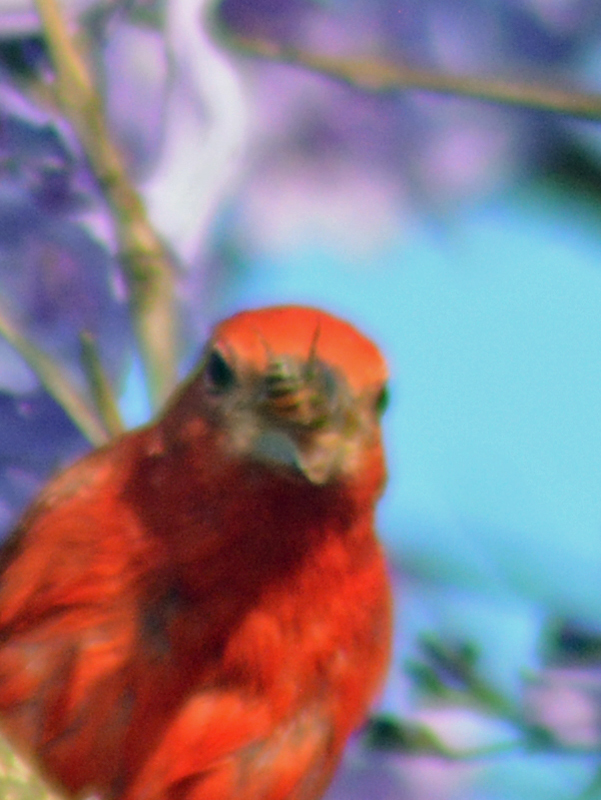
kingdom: Animalia
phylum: Arthropoda
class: Insecta
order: Hymenoptera
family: Apidae
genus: Apis
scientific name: Apis mellifera
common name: Honey bee
